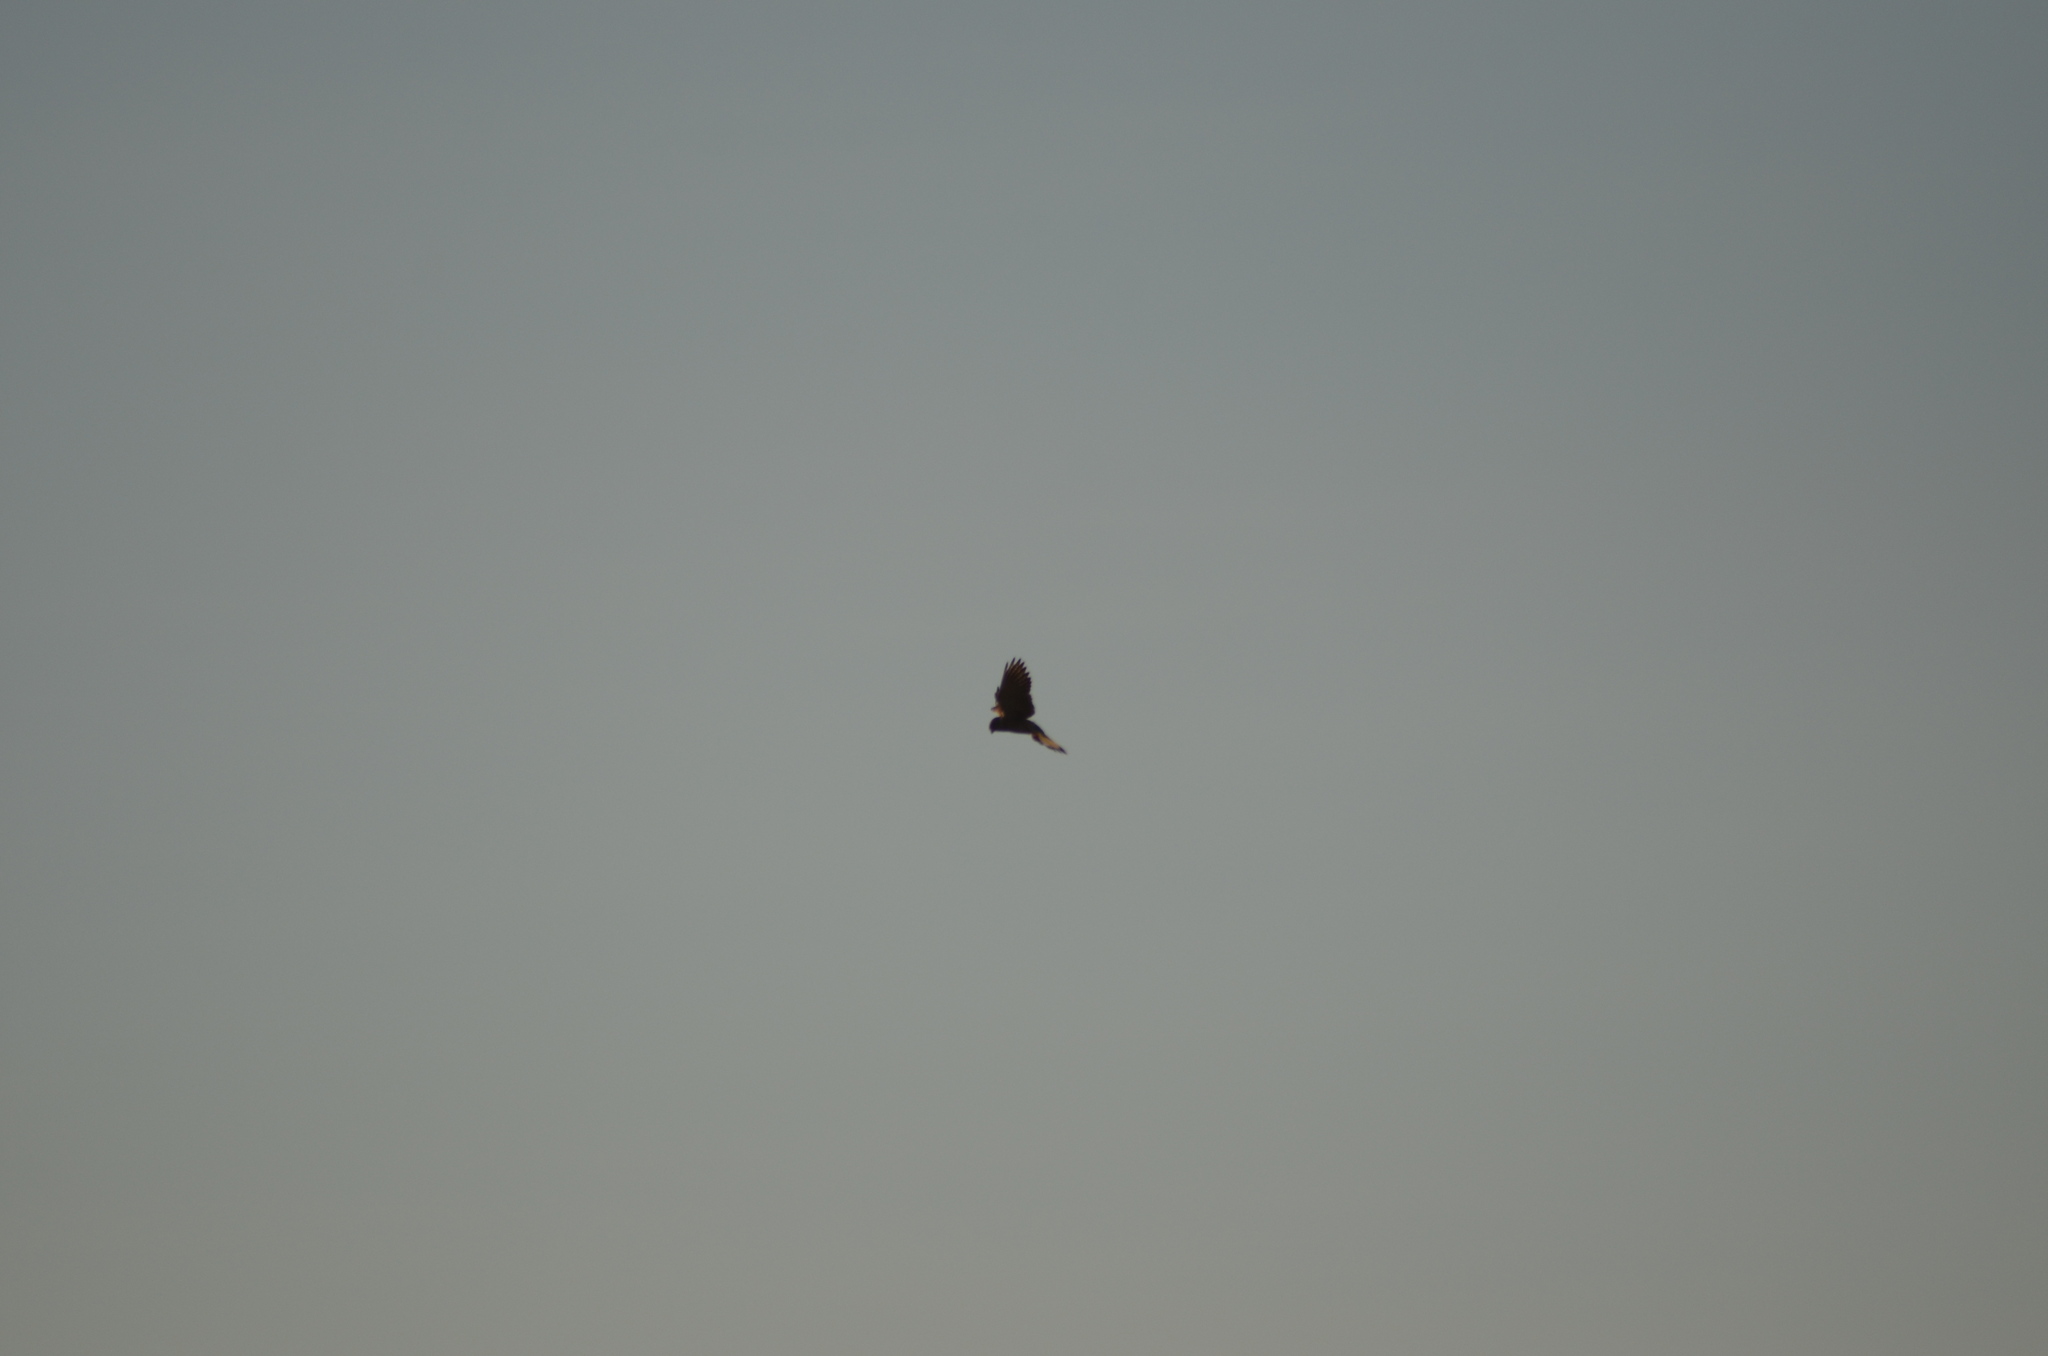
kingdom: Animalia
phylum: Chordata
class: Aves
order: Falconiformes
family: Falconidae
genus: Falco
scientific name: Falco tinnunculus
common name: Common kestrel
